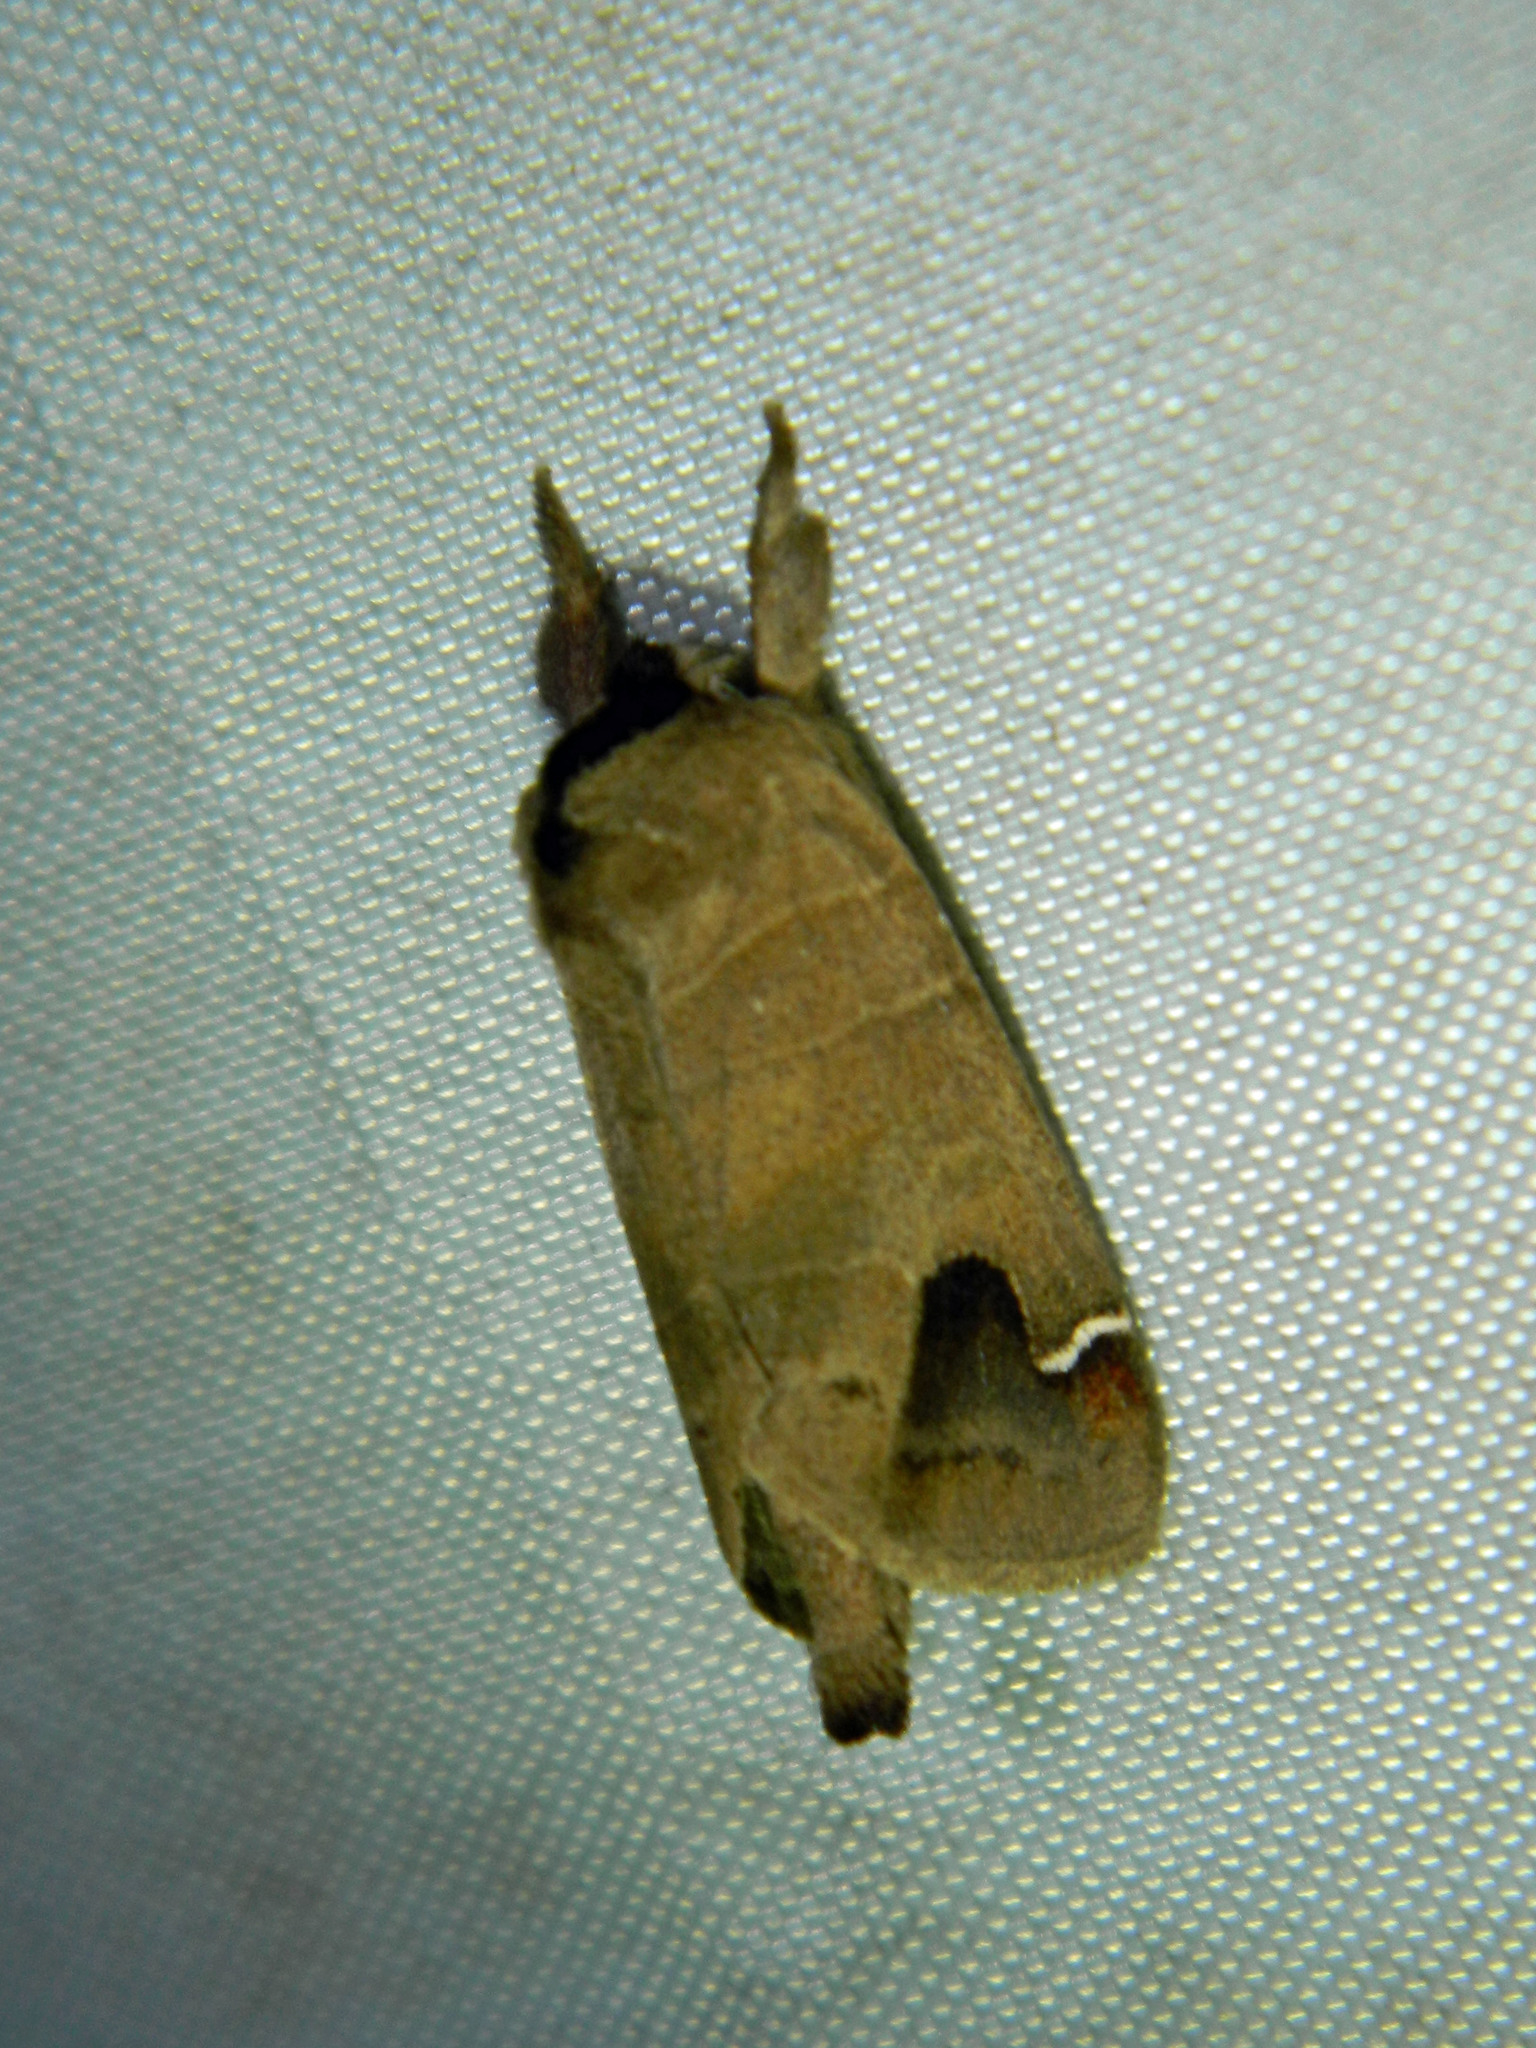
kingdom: Animalia
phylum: Arthropoda
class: Insecta
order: Lepidoptera
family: Notodontidae
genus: Clostera
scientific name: Clostera albosigma
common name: Sigmoid prominent
